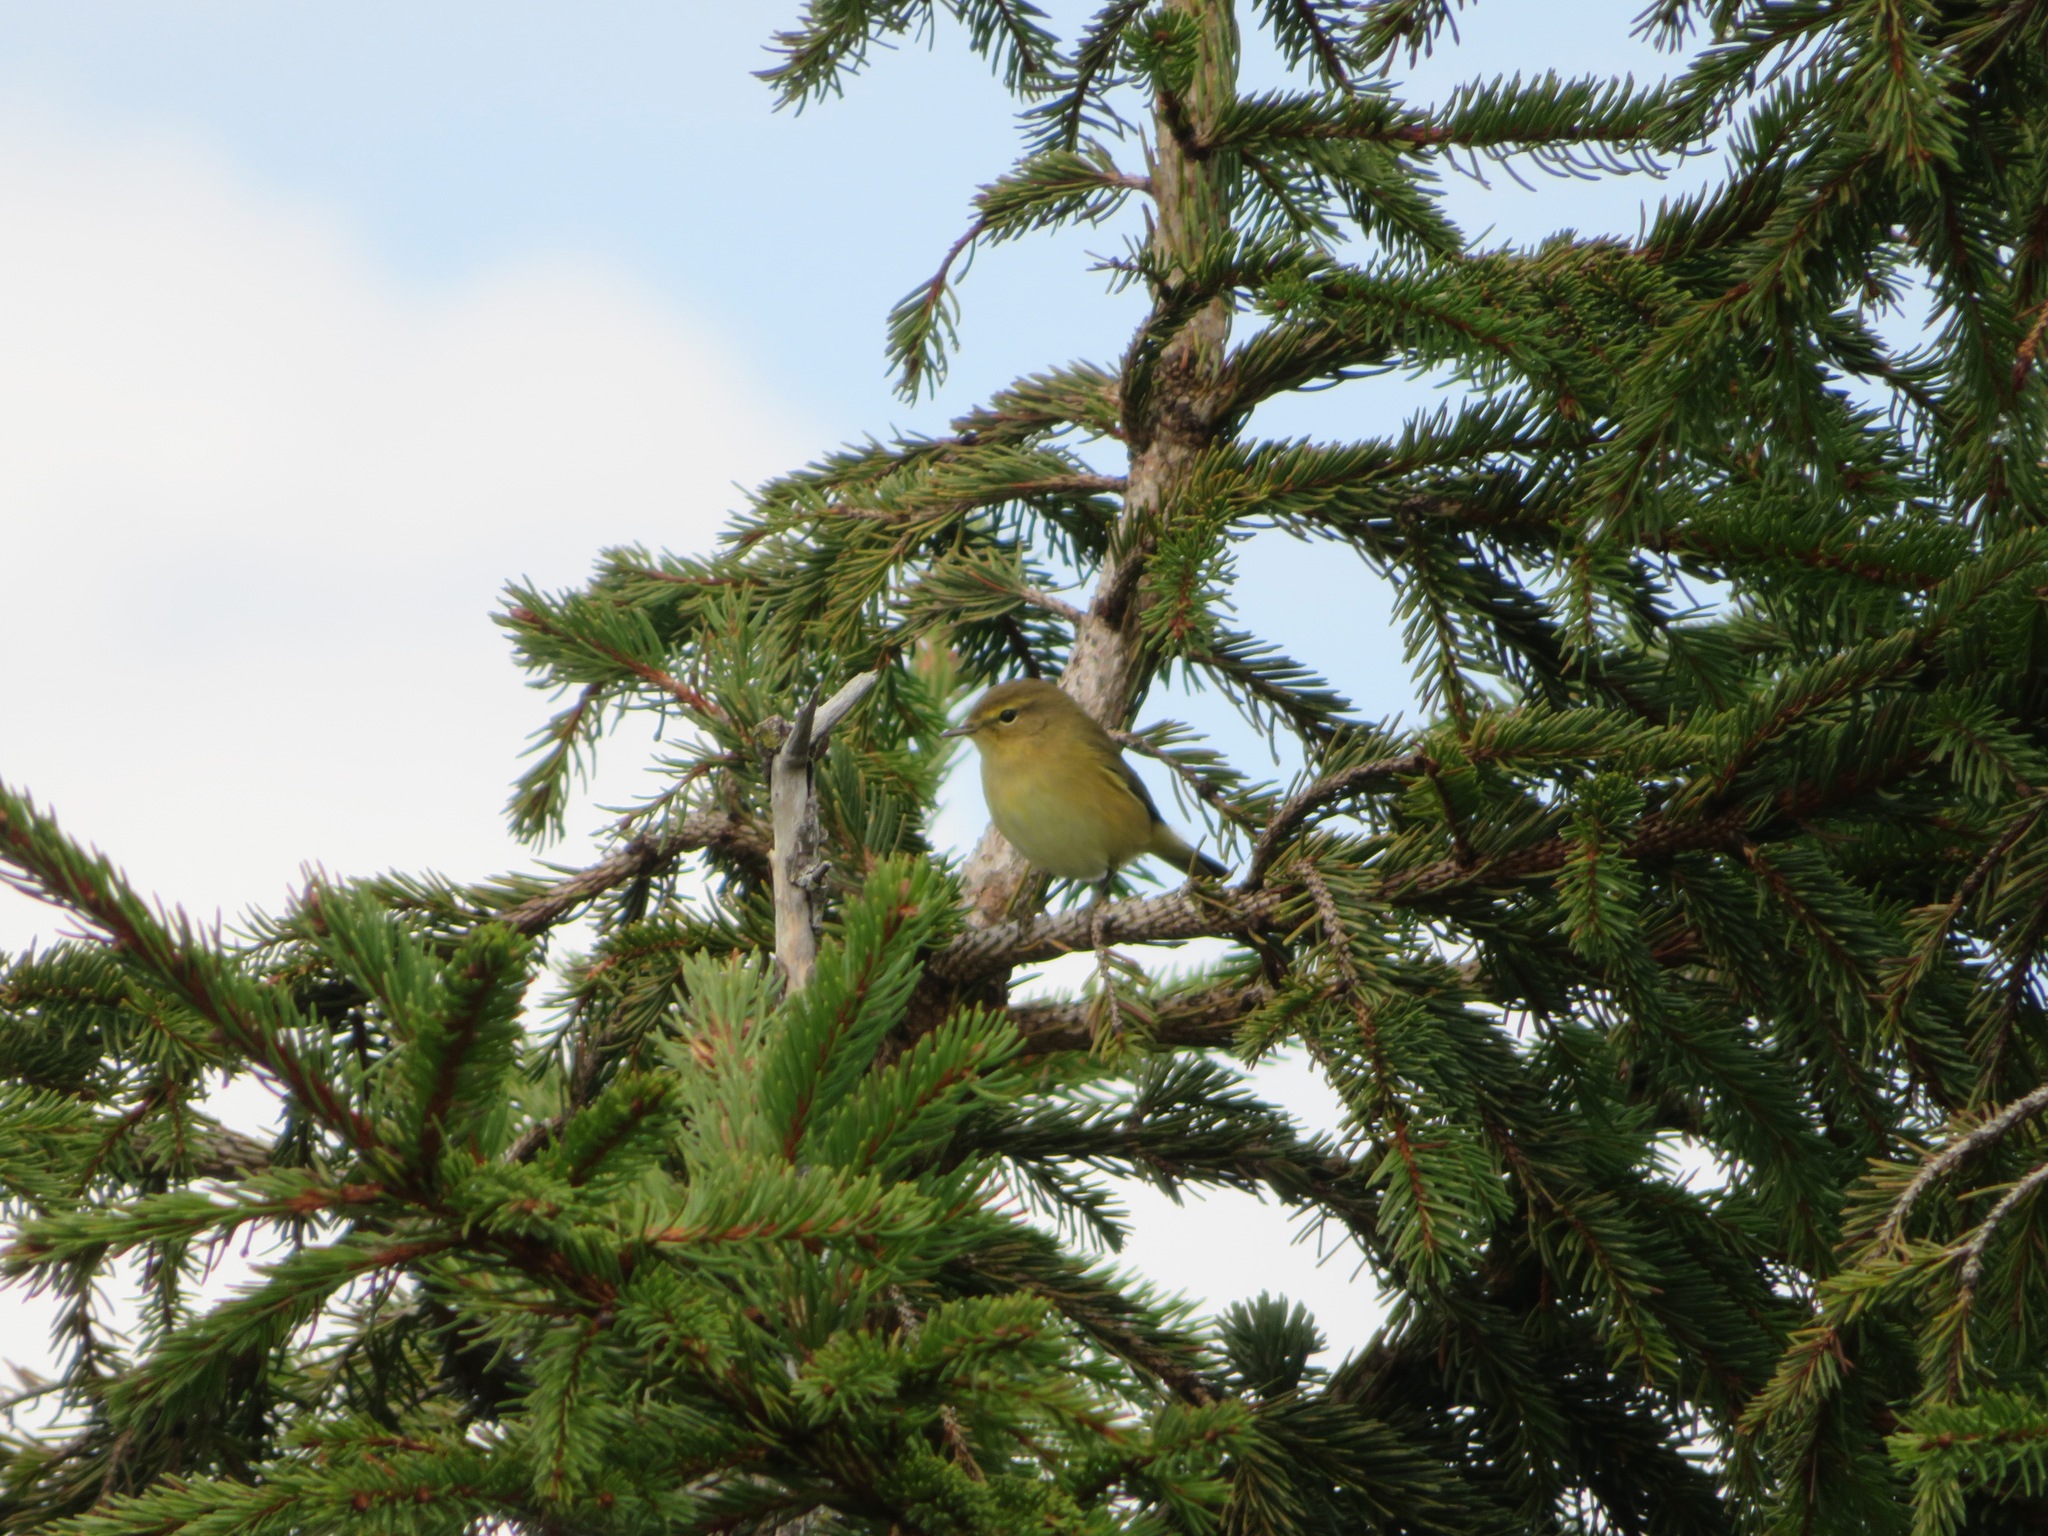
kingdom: Animalia
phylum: Chordata
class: Aves
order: Passeriformes
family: Phylloscopidae
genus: Phylloscopus
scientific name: Phylloscopus collybita
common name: Common chiffchaff
